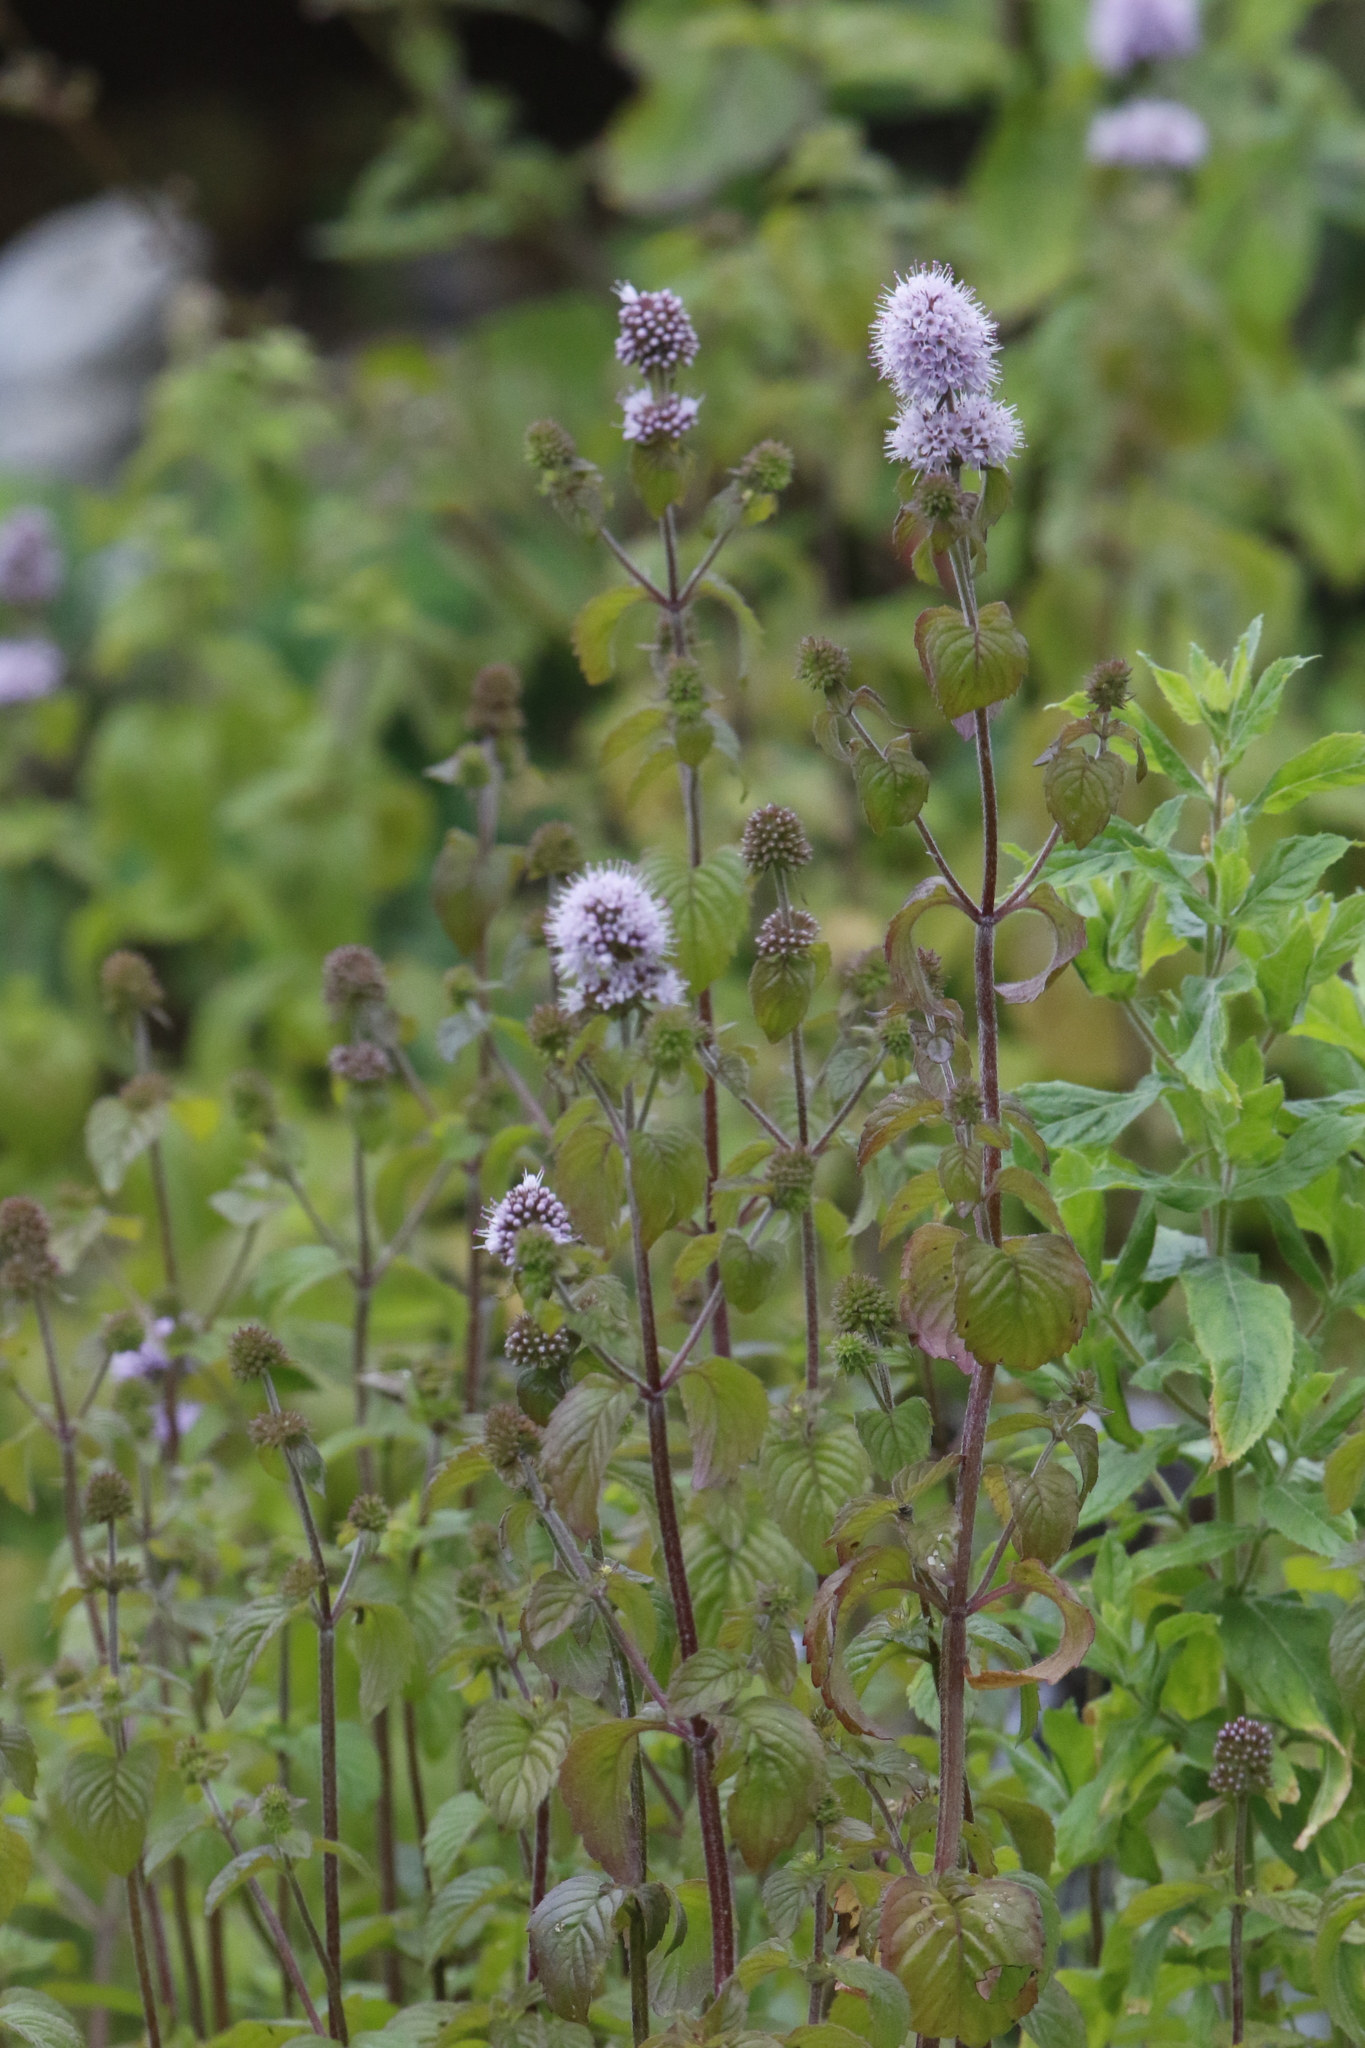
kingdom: Plantae
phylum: Tracheophyta
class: Magnoliopsida
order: Lamiales
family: Lamiaceae
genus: Mentha
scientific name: Mentha aquatica
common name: Water mint
